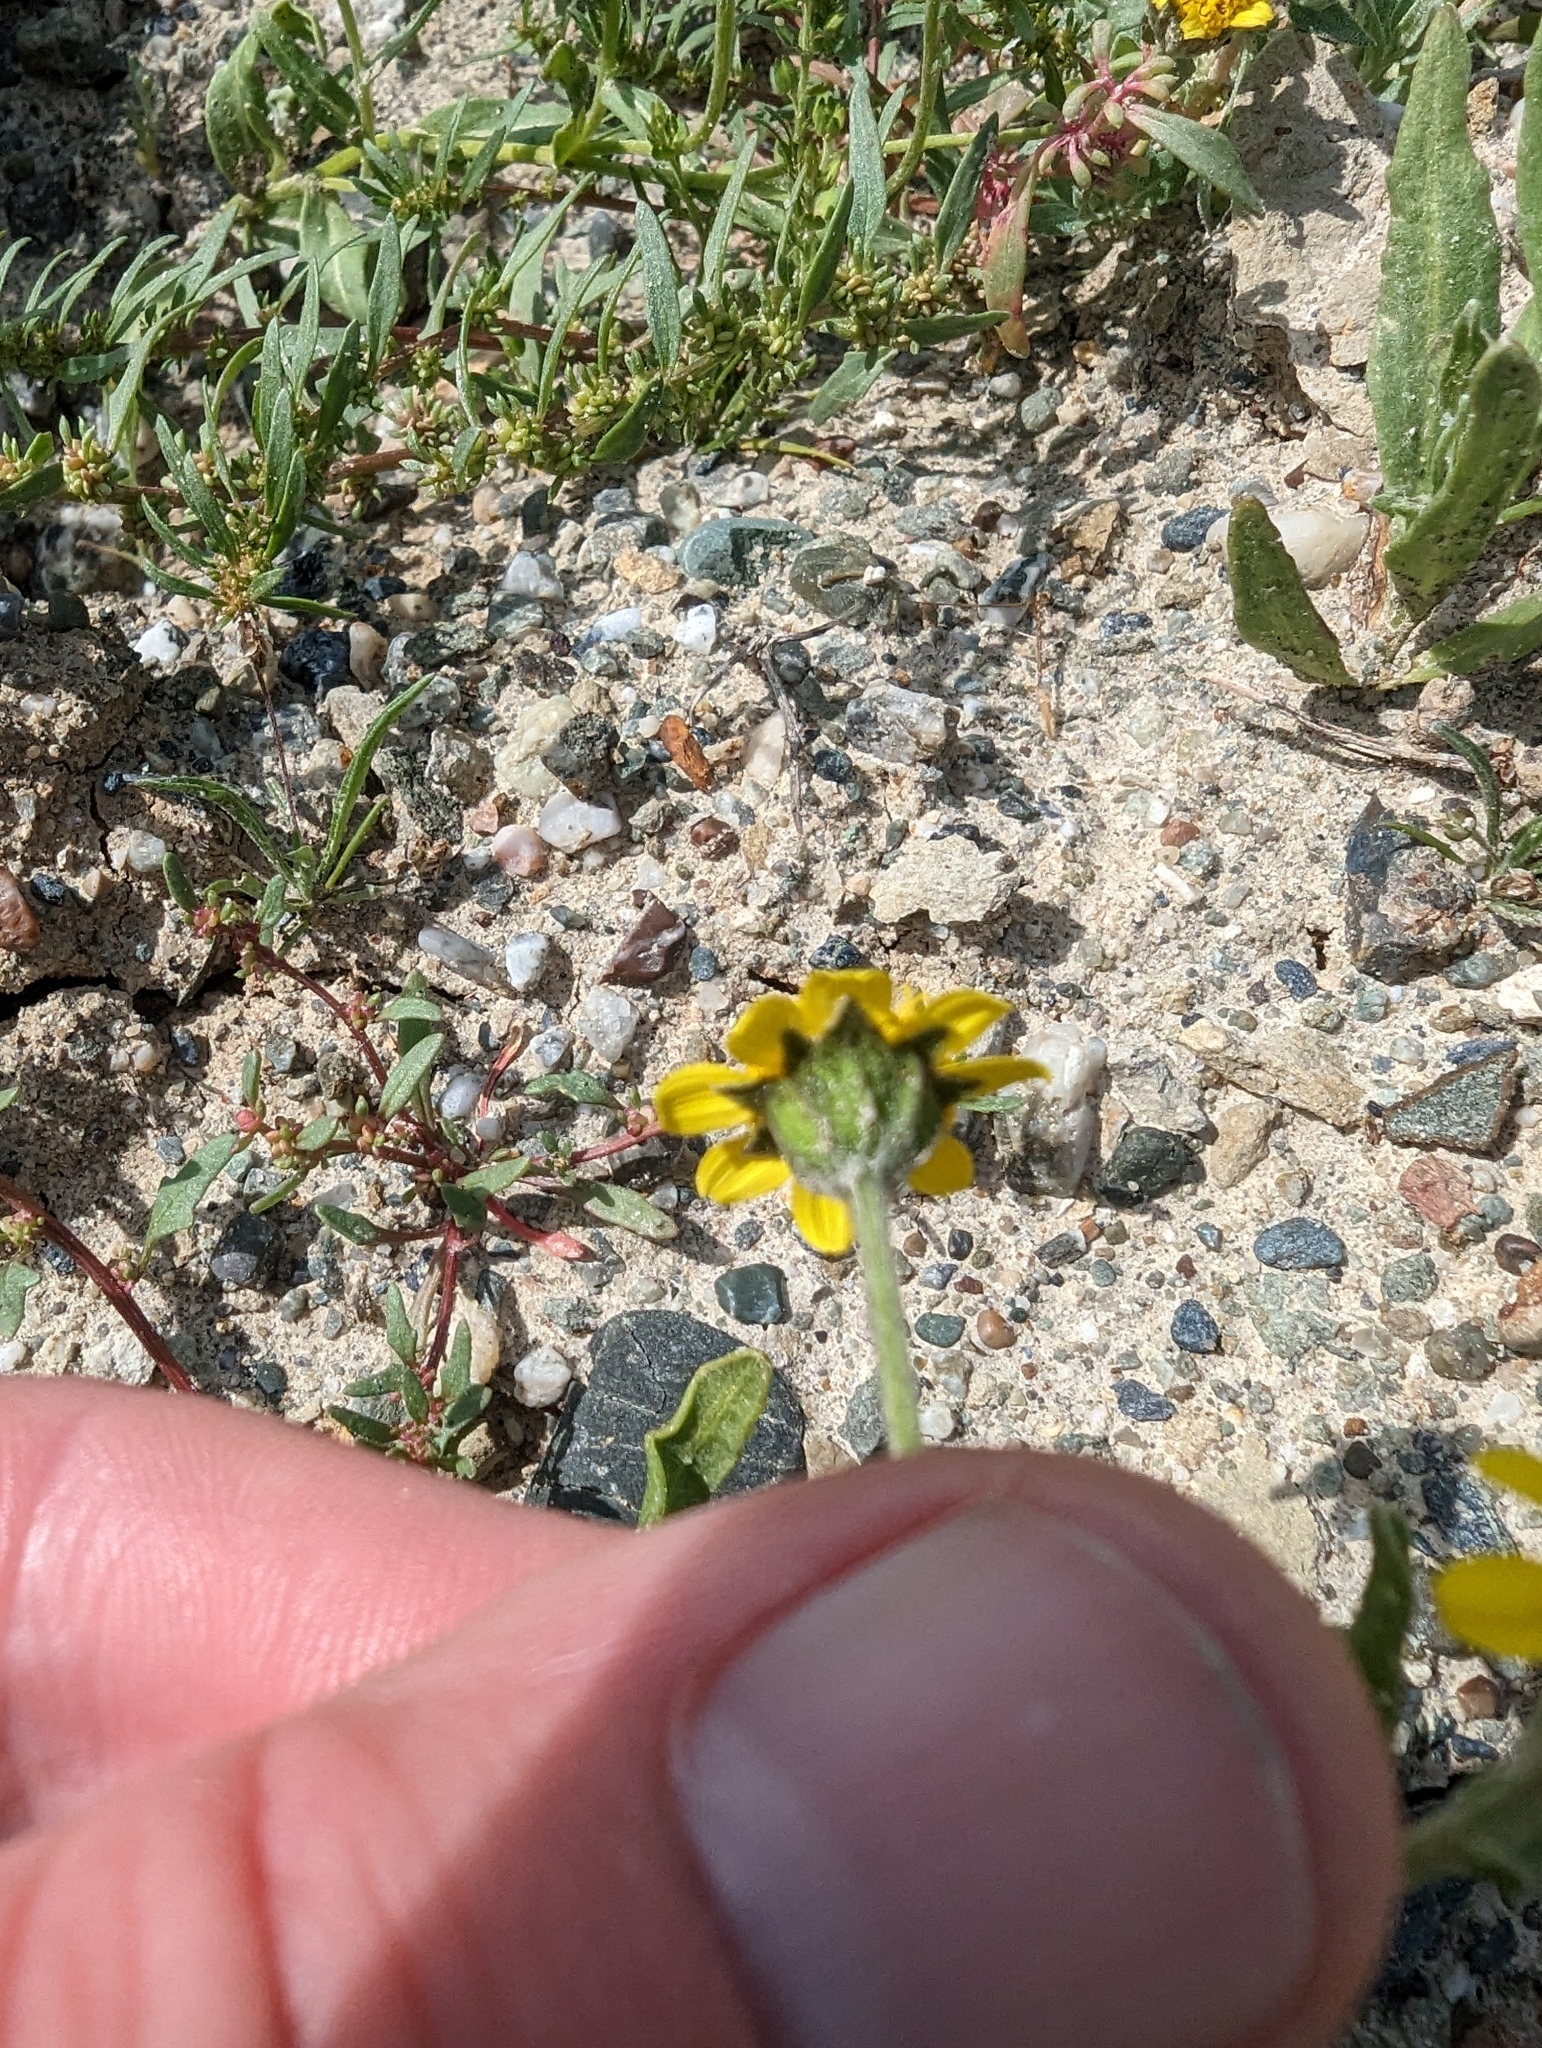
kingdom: Plantae
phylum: Tracheophyta
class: Magnoliopsida
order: Asterales
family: Asteraceae
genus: Monolopia
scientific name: Monolopia stricta
